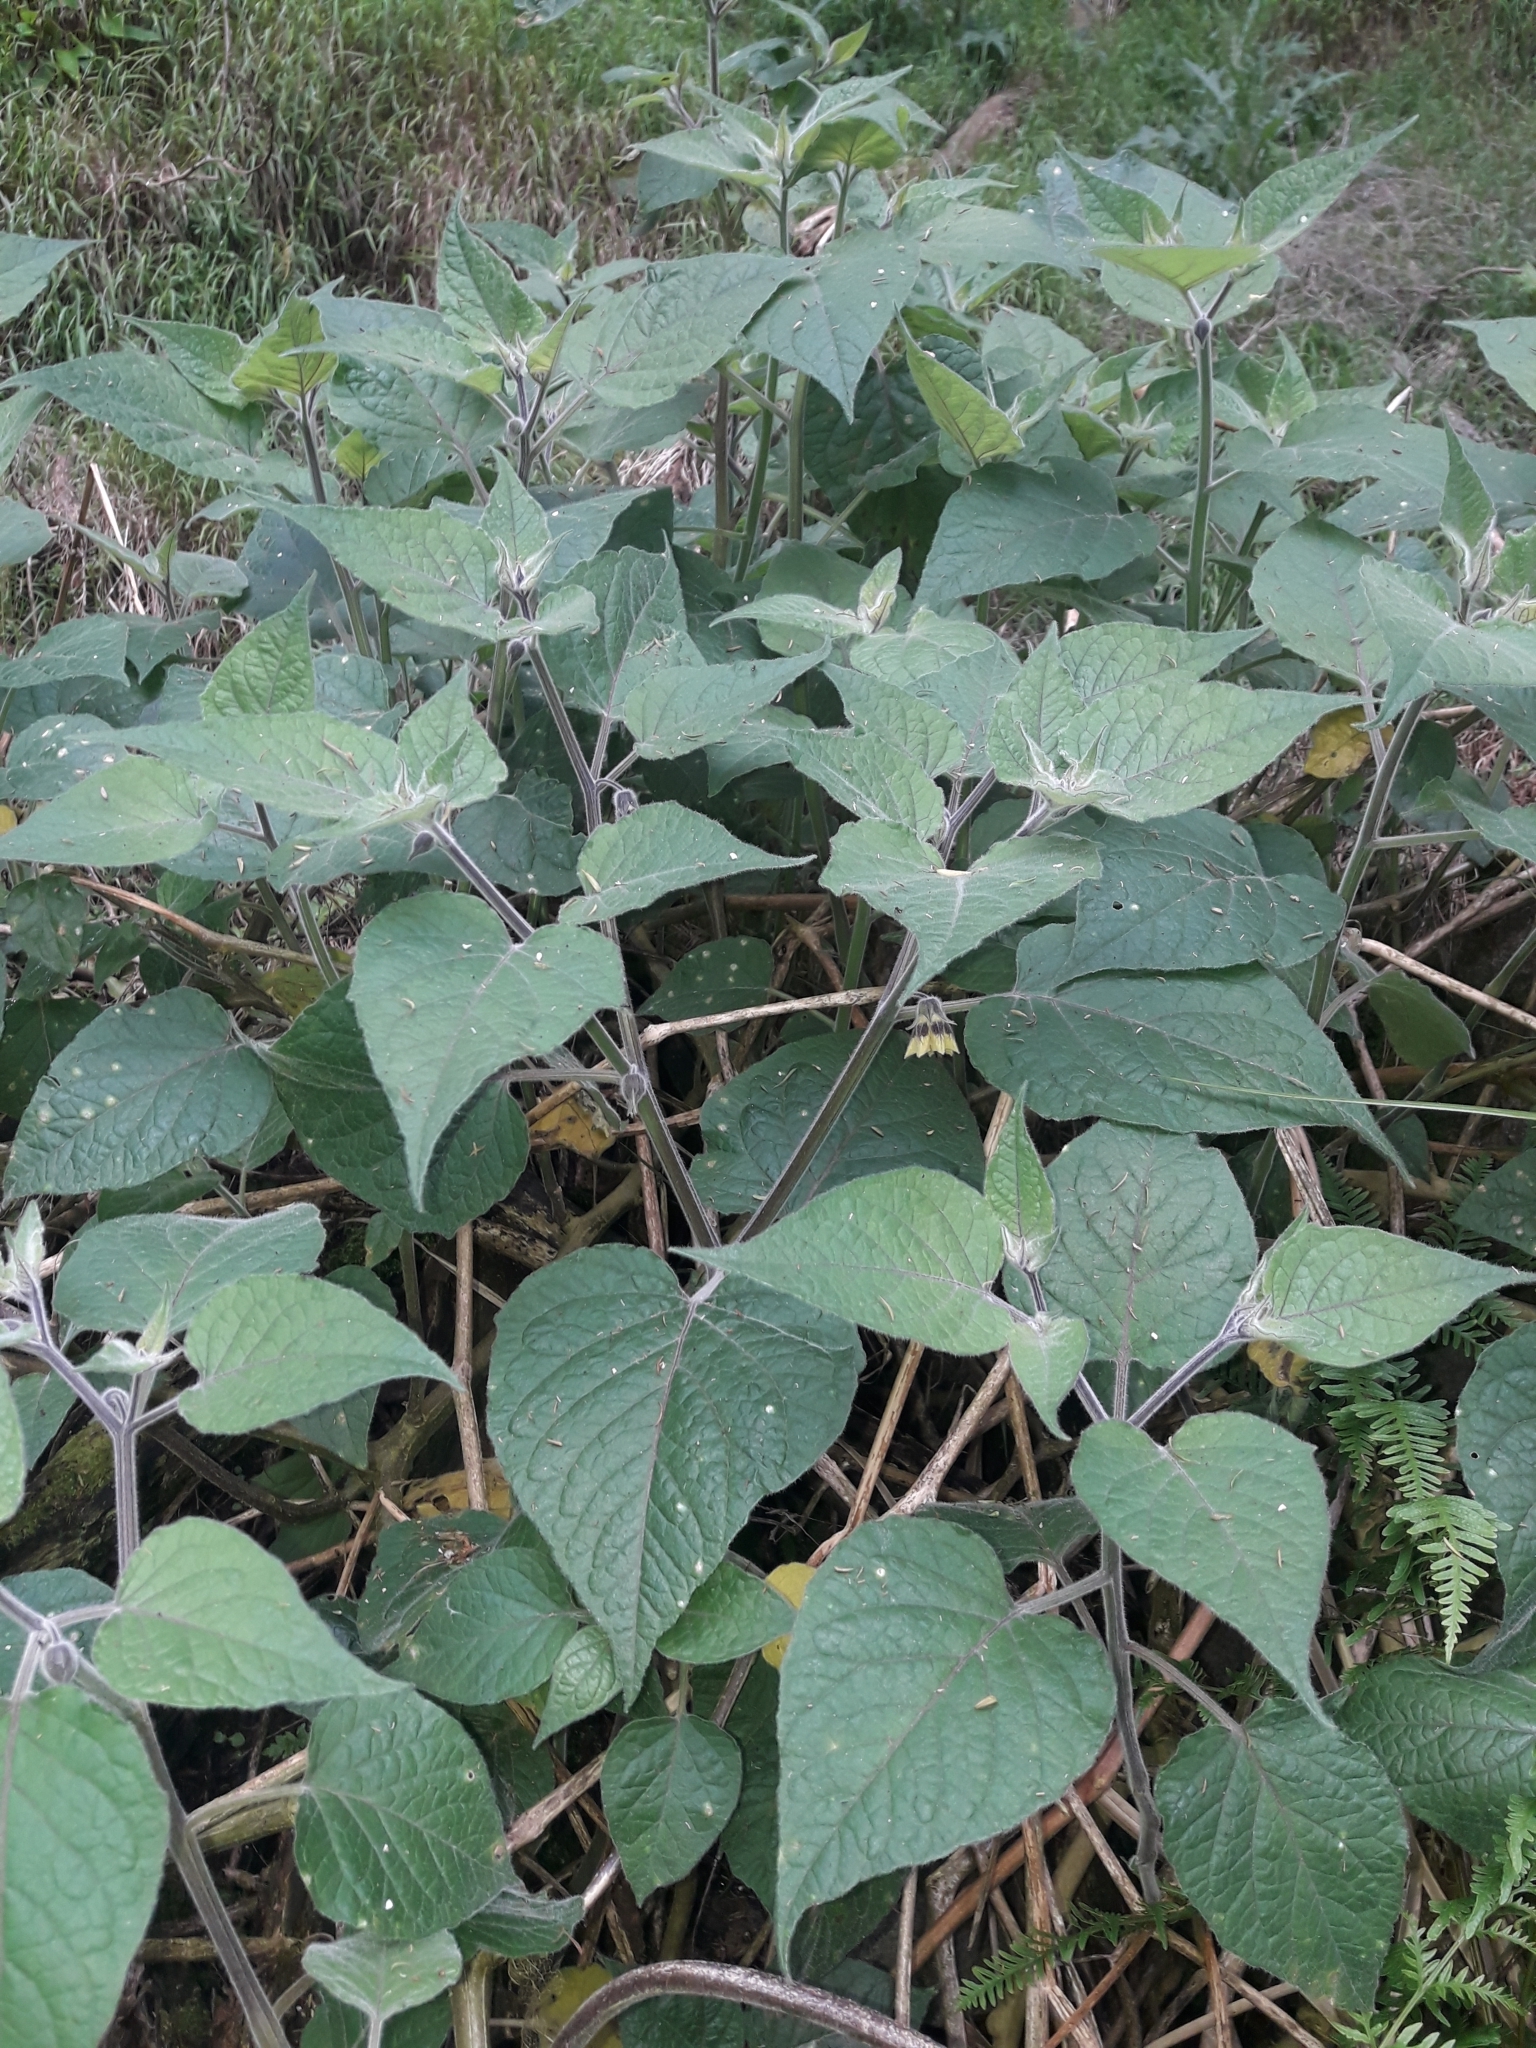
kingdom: Plantae
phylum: Tracheophyta
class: Magnoliopsida
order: Solanales
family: Solanaceae
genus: Physalis
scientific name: Physalis peruviana
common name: Cape-gooseberry
